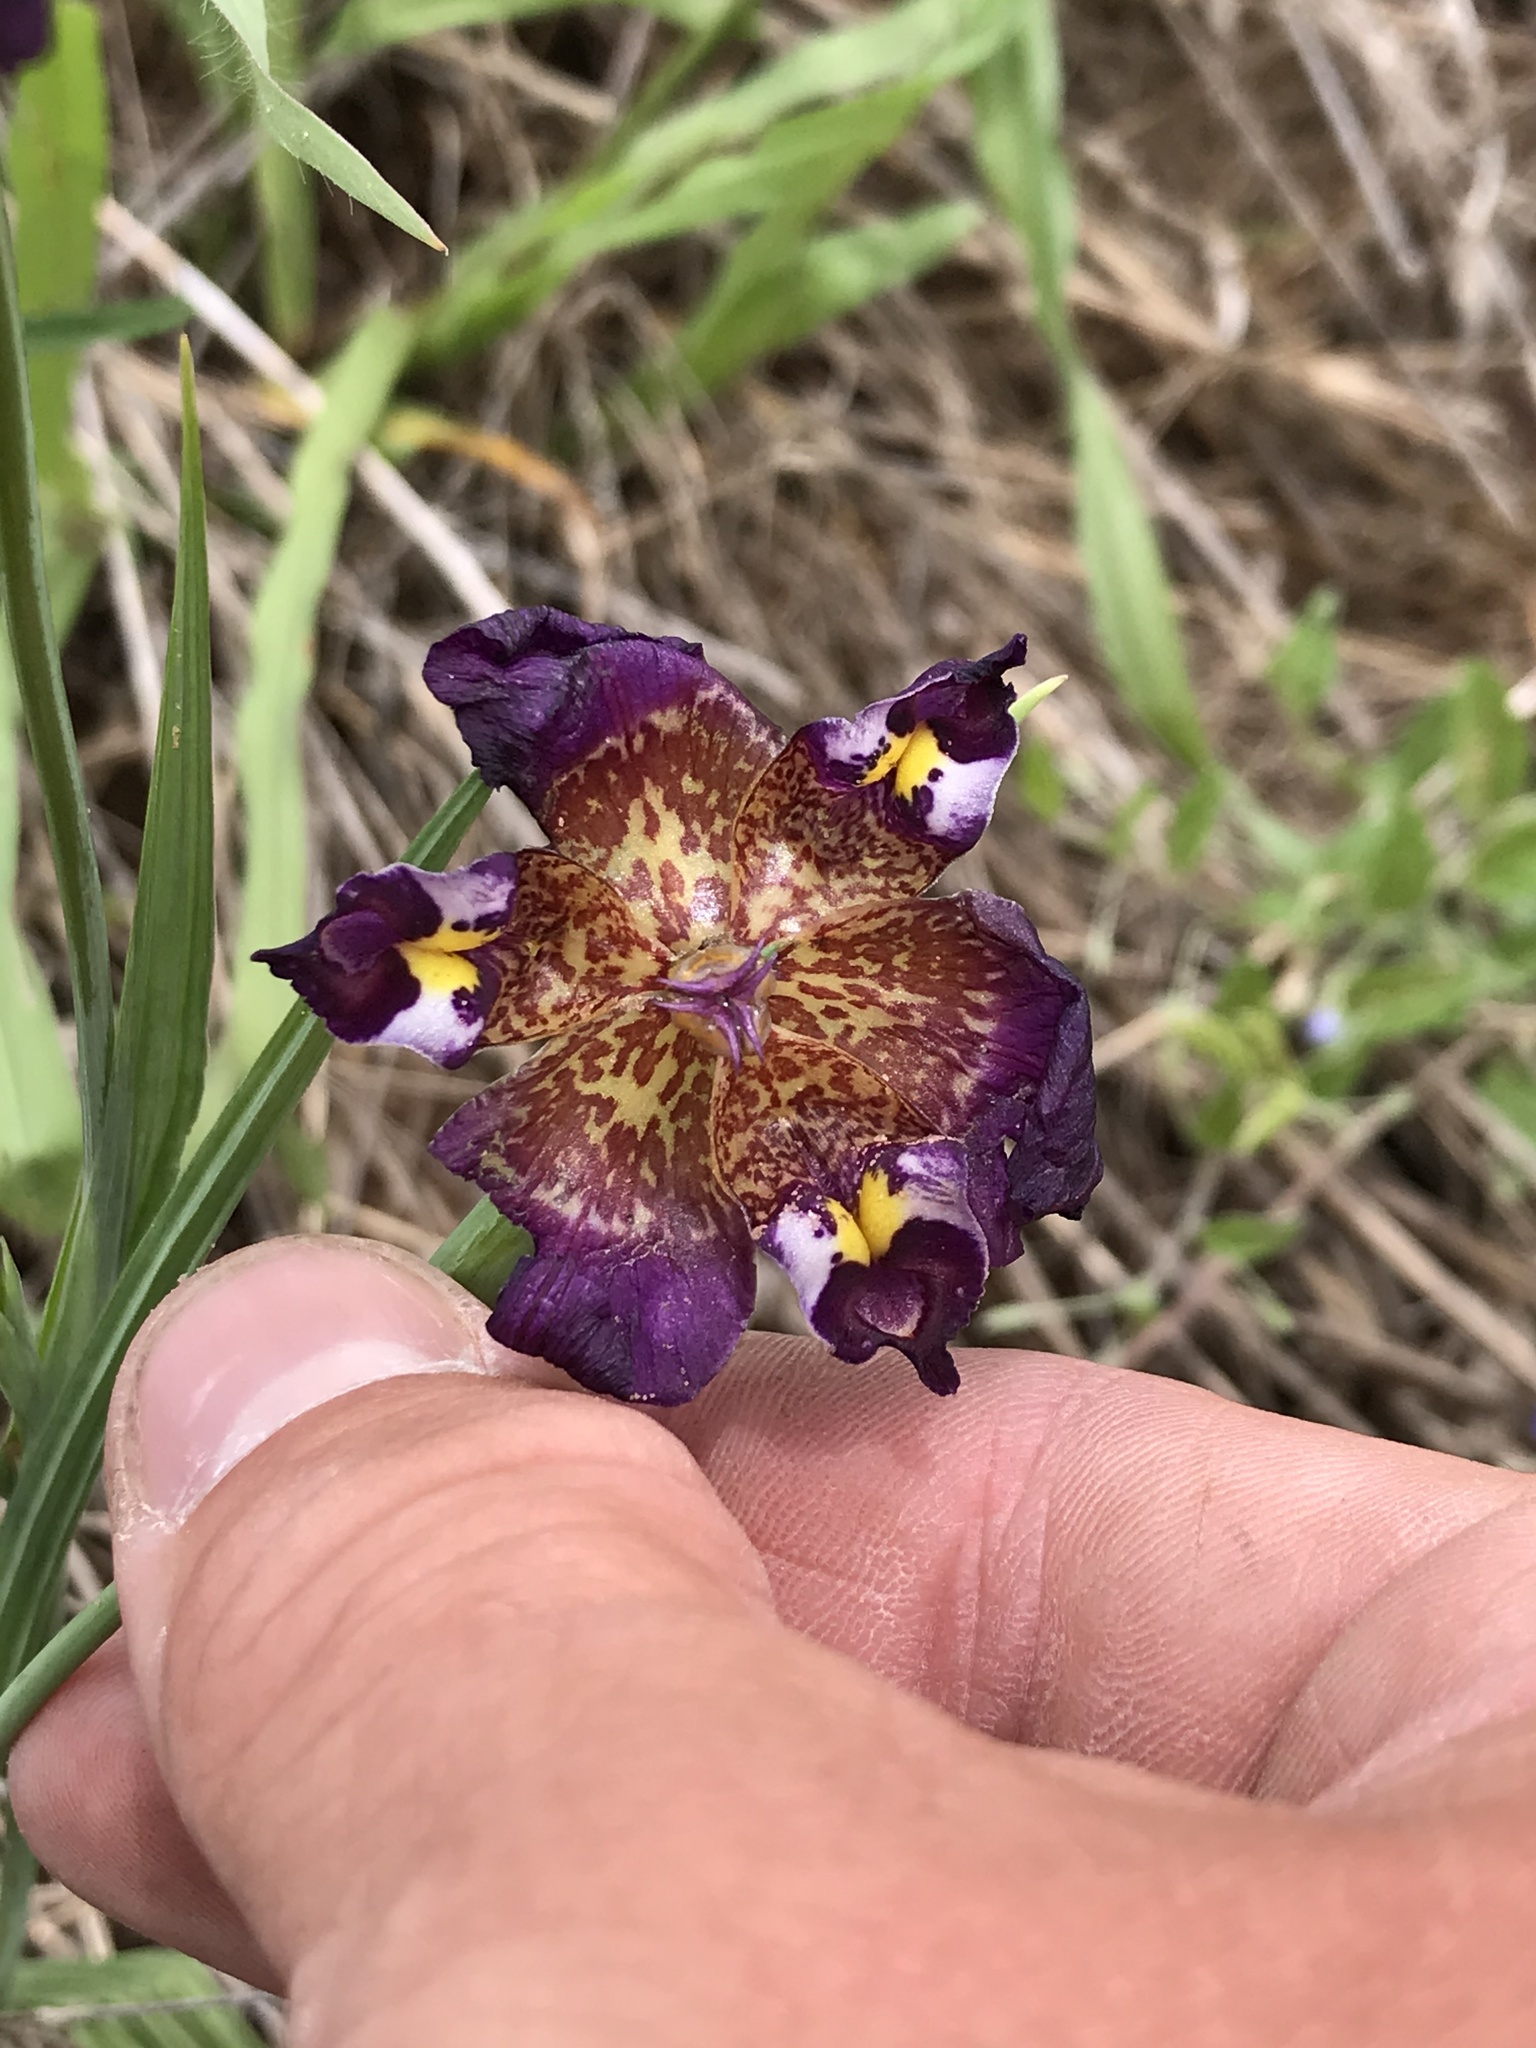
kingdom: Plantae
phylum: Tracheophyta
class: Liliopsida
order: Asparagales
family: Iridaceae
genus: Alophia
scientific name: Alophia drummondii
